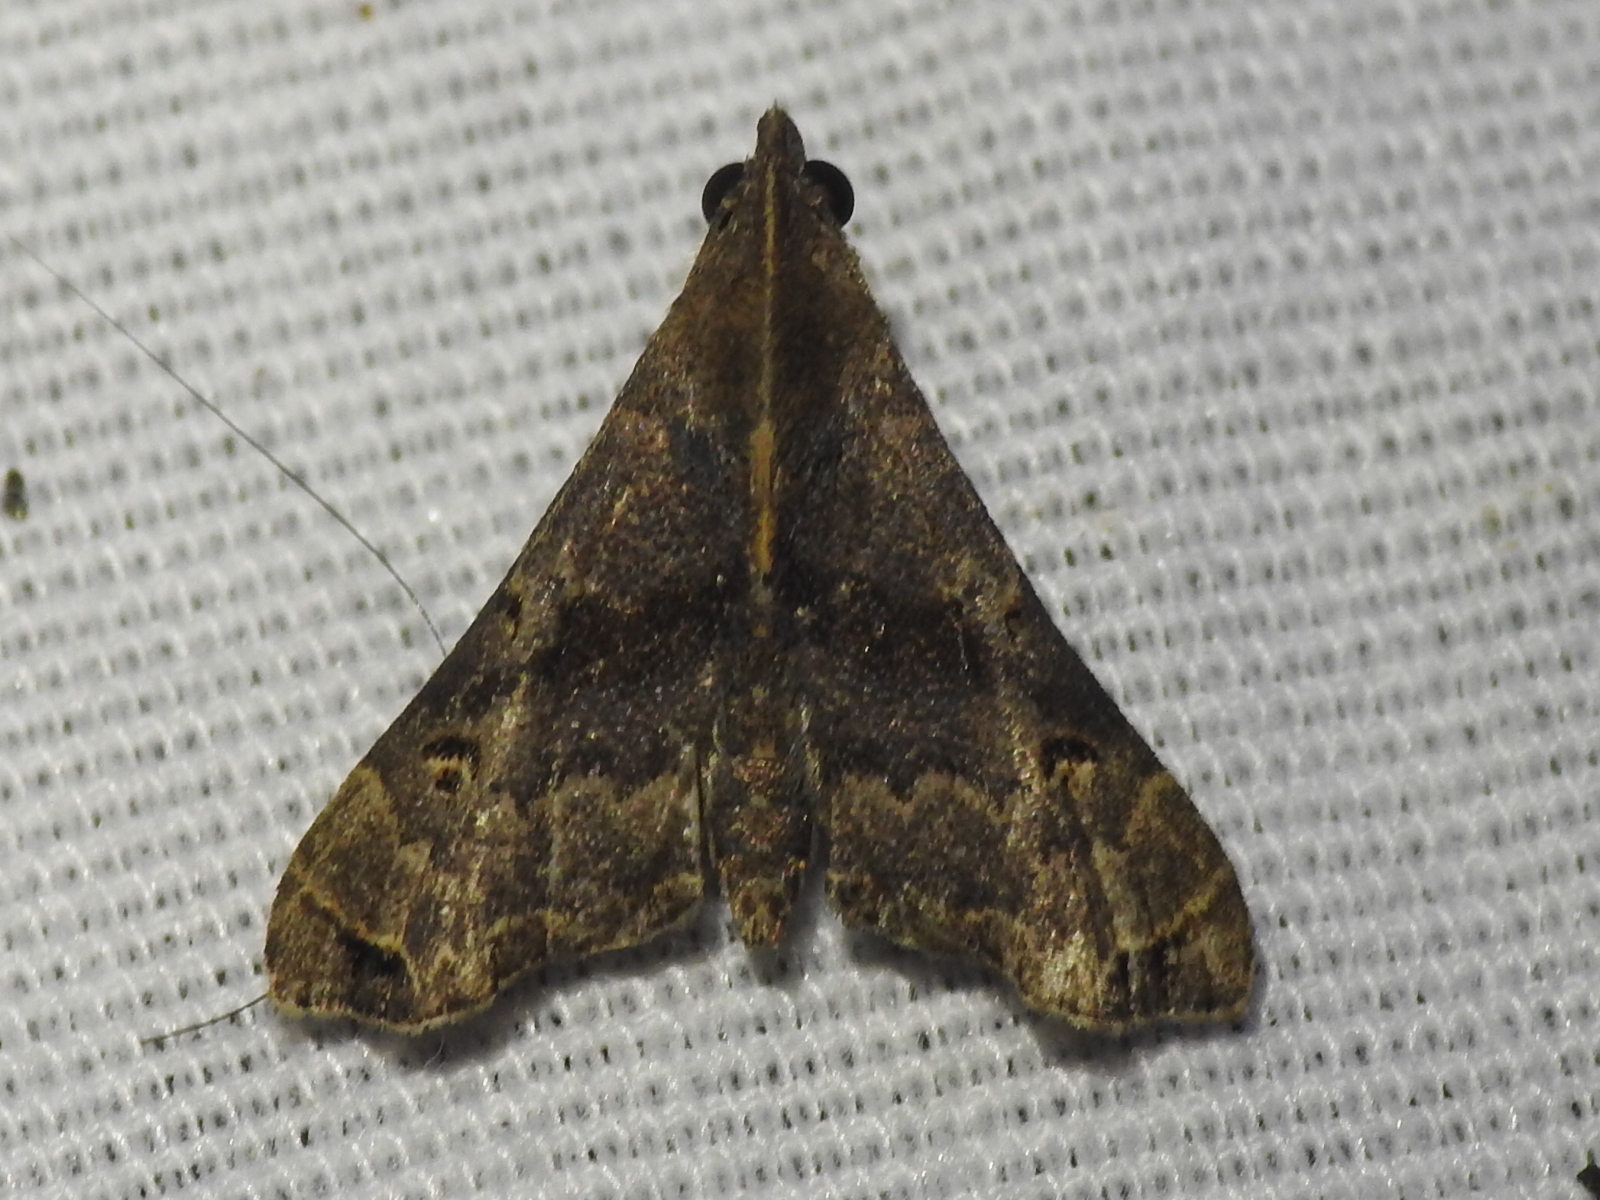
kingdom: Animalia
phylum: Arthropoda
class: Insecta
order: Lepidoptera
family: Erebidae
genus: Palthis
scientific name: Palthis asopialis
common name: Faint-spotted palthis moth
